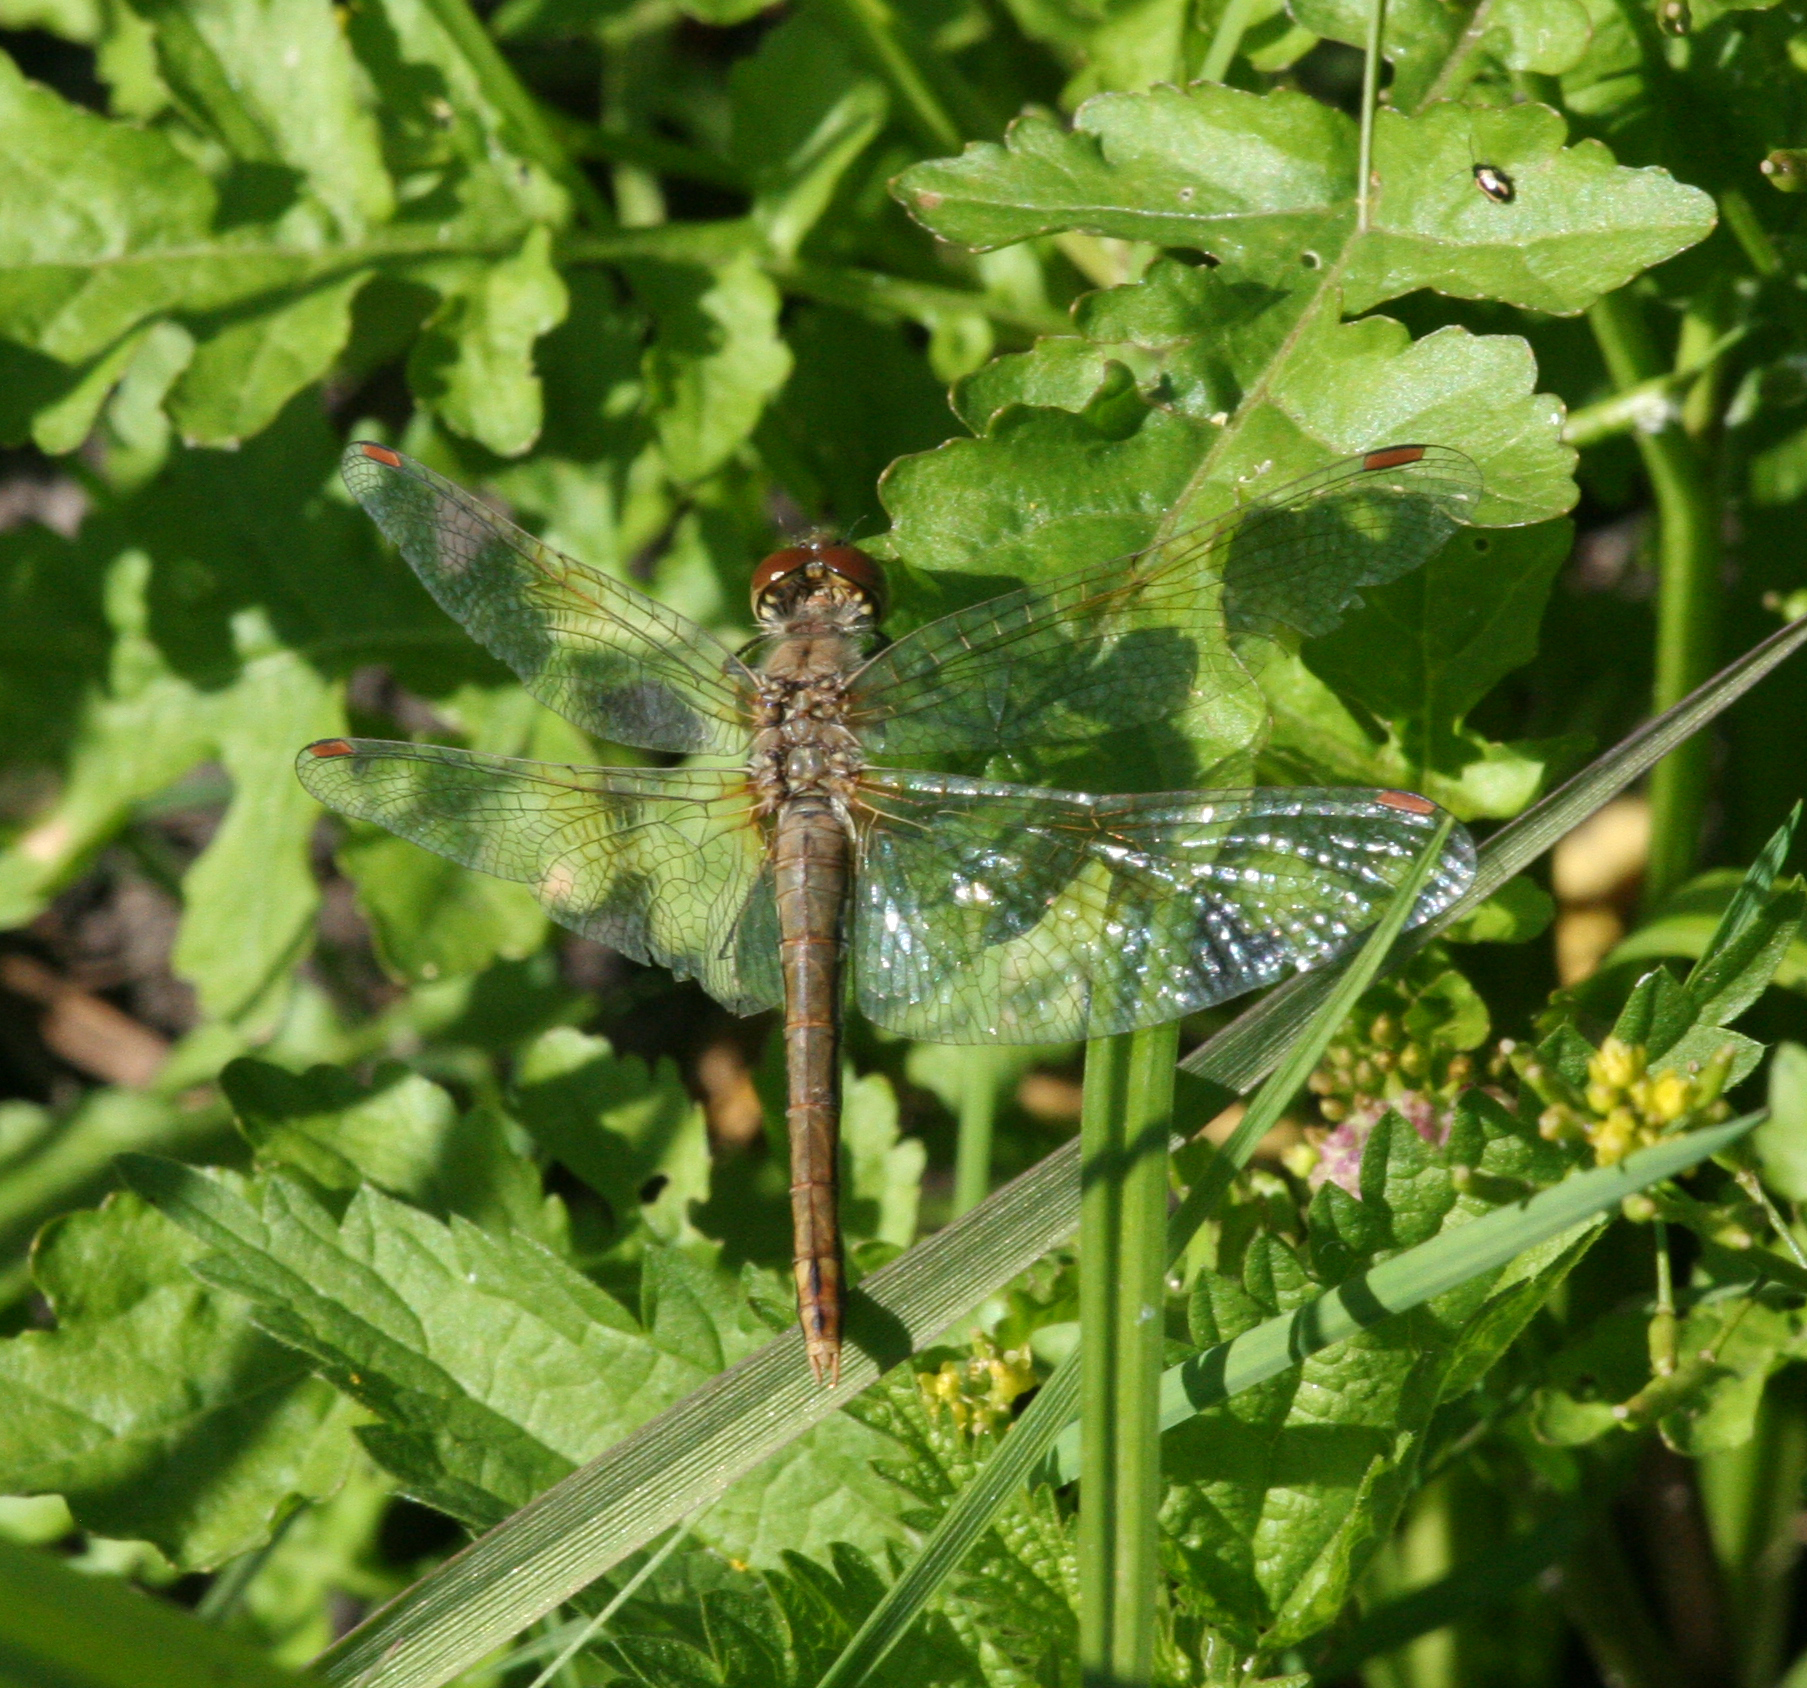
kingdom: Animalia
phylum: Arthropoda
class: Insecta
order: Odonata
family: Libellulidae
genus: Sympetrum
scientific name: Sympetrum flaveolum
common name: Yellow-winged darter
